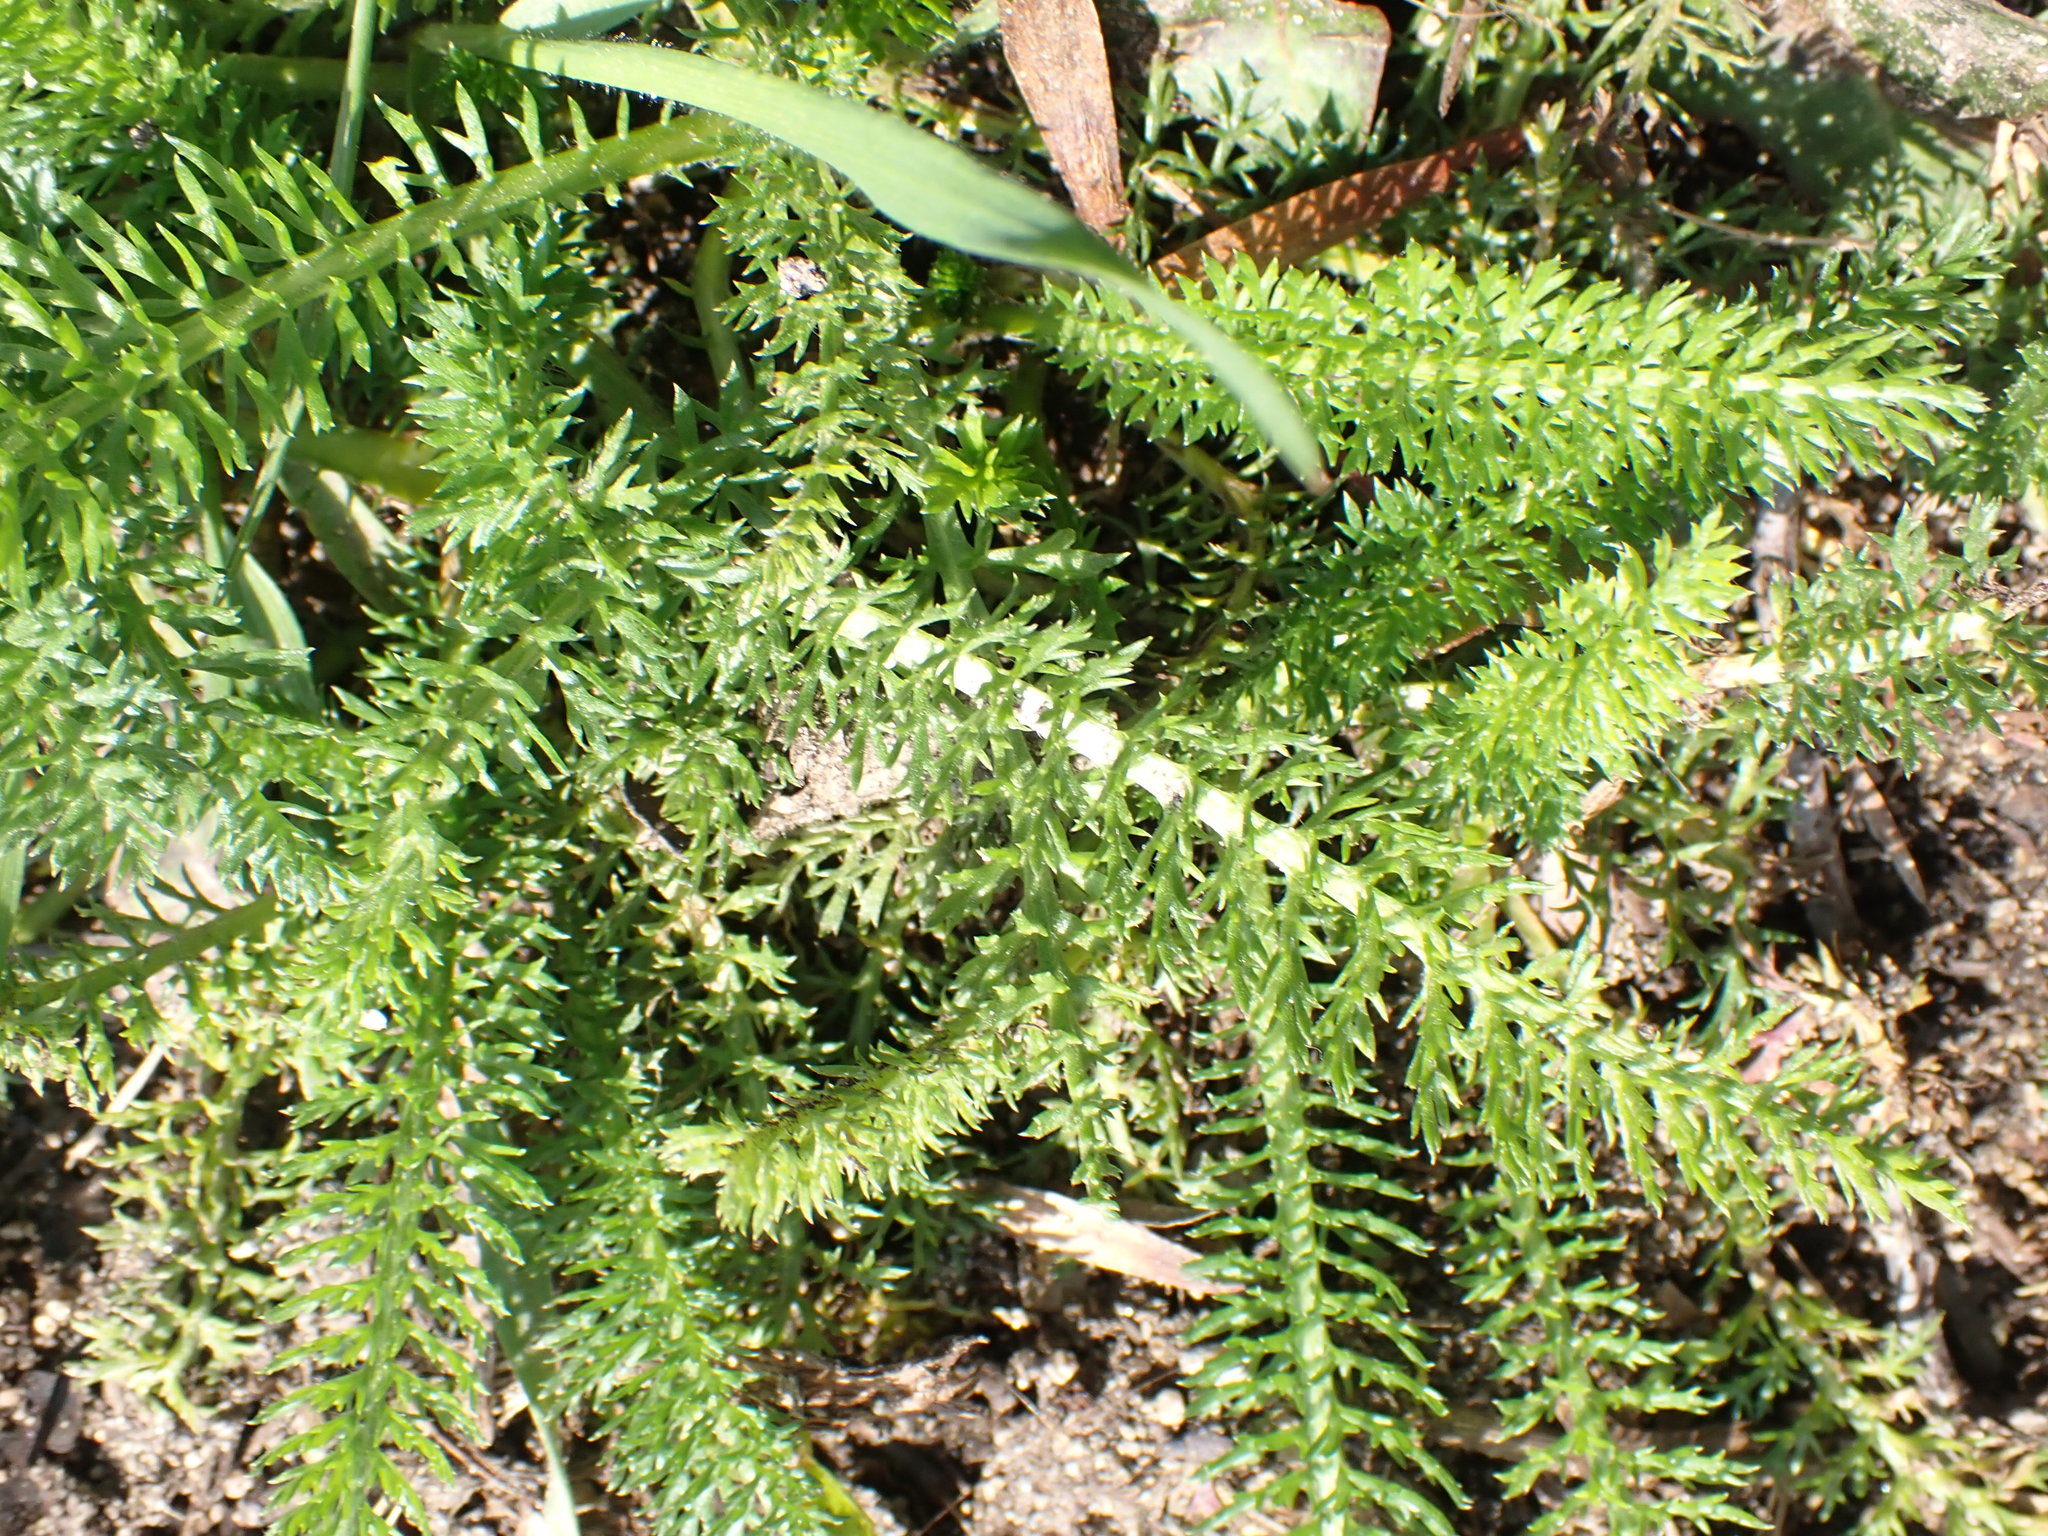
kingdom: Plantae
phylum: Tracheophyta
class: Magnoliopsida
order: Asterales
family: Asteraceae
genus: Achillea
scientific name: Achillea millefolium
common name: Yarrow
